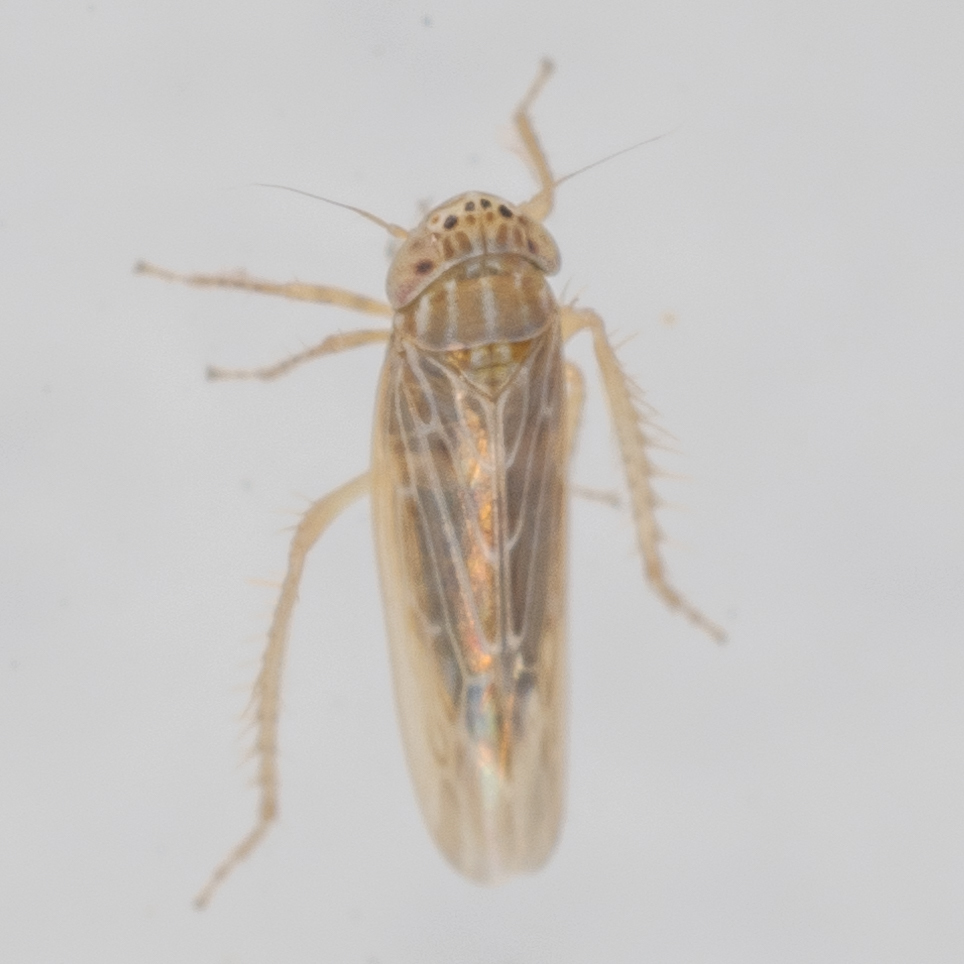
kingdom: Animalia
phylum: Arthropoda
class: Insecta
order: Hemiptera
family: Cicadellidae
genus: Graminella
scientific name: Graminella sonora
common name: Lesser lawn leafhopper
